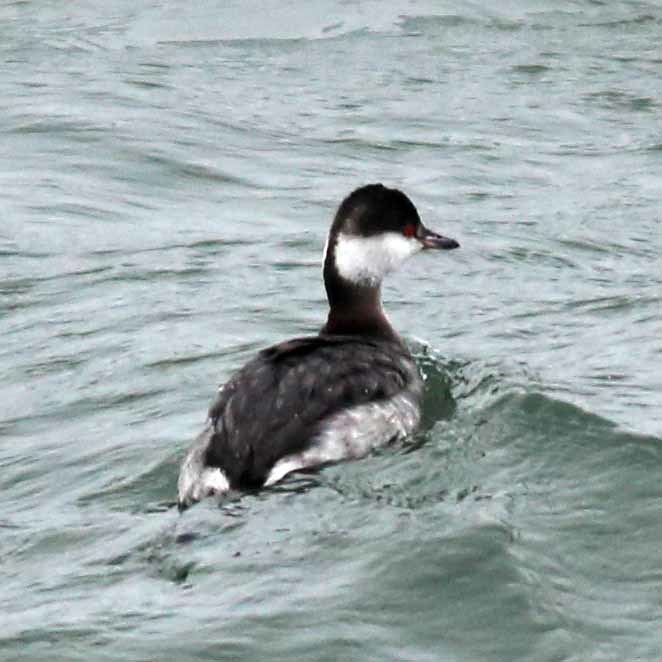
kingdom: Animalia
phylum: Chordata
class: Aves
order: Podicipediformes
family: Podicipedidae
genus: Podiceps
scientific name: Podiceps auritus
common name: Horned grebe
